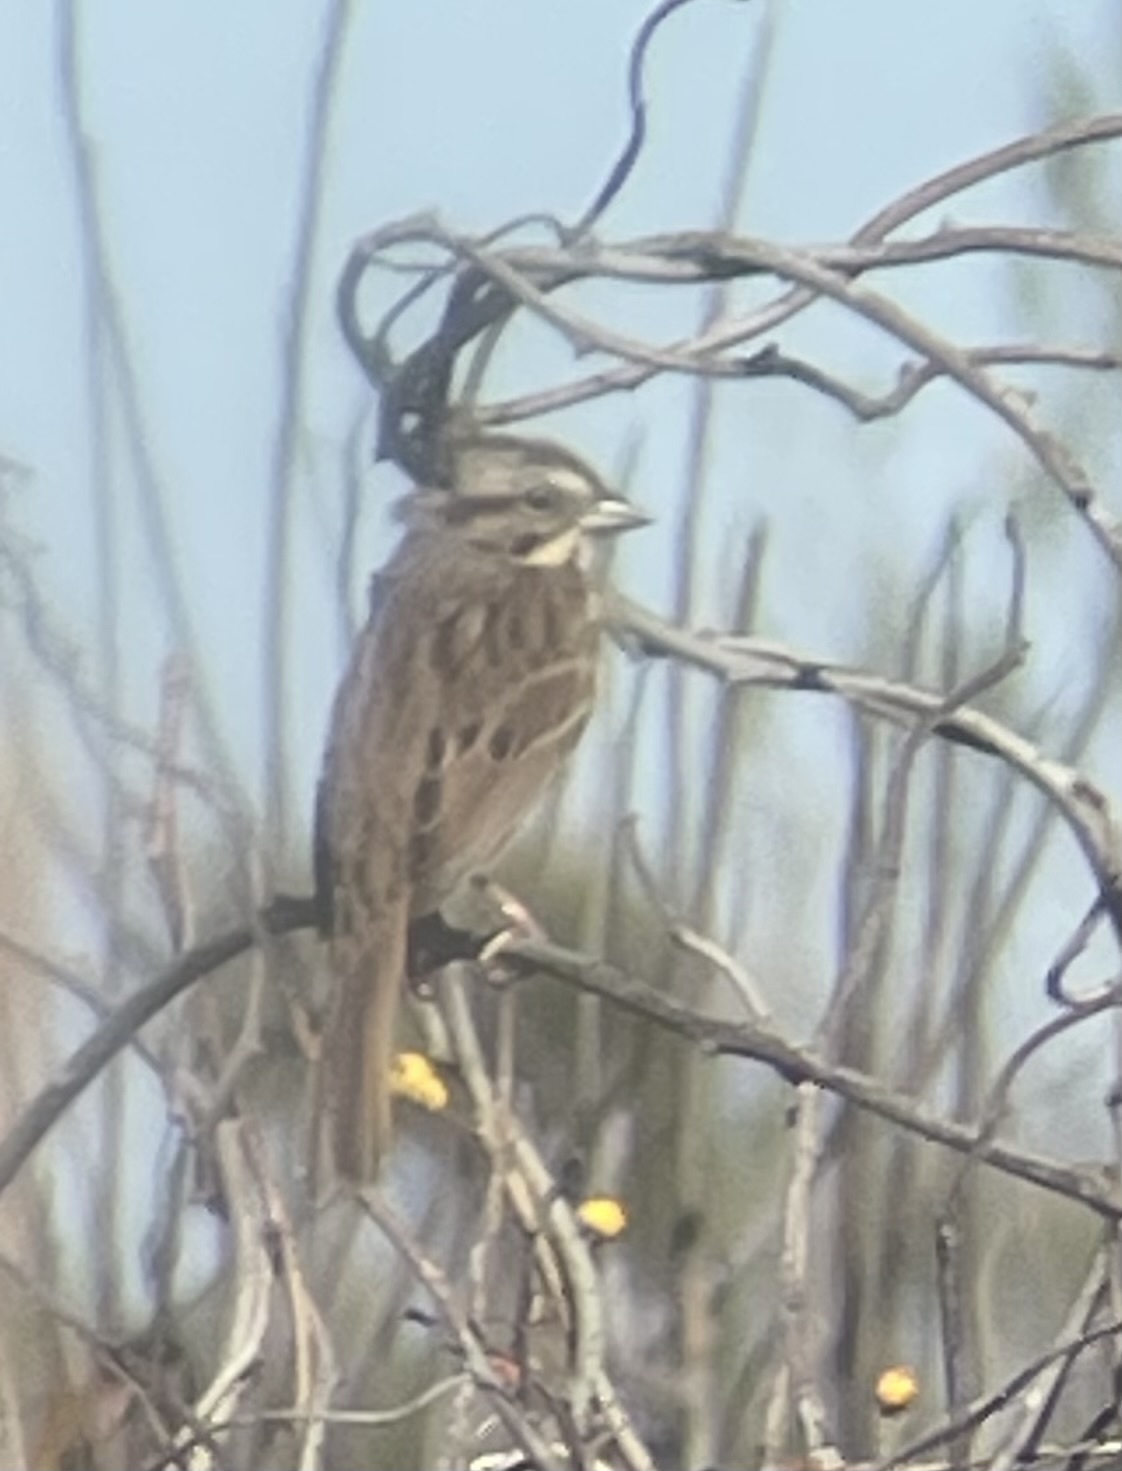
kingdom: Animalia
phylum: Chordata
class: Aves
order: Passeriformes
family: Passerellidae
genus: Melospiza
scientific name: Melospiza melodia
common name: Song sparrow
